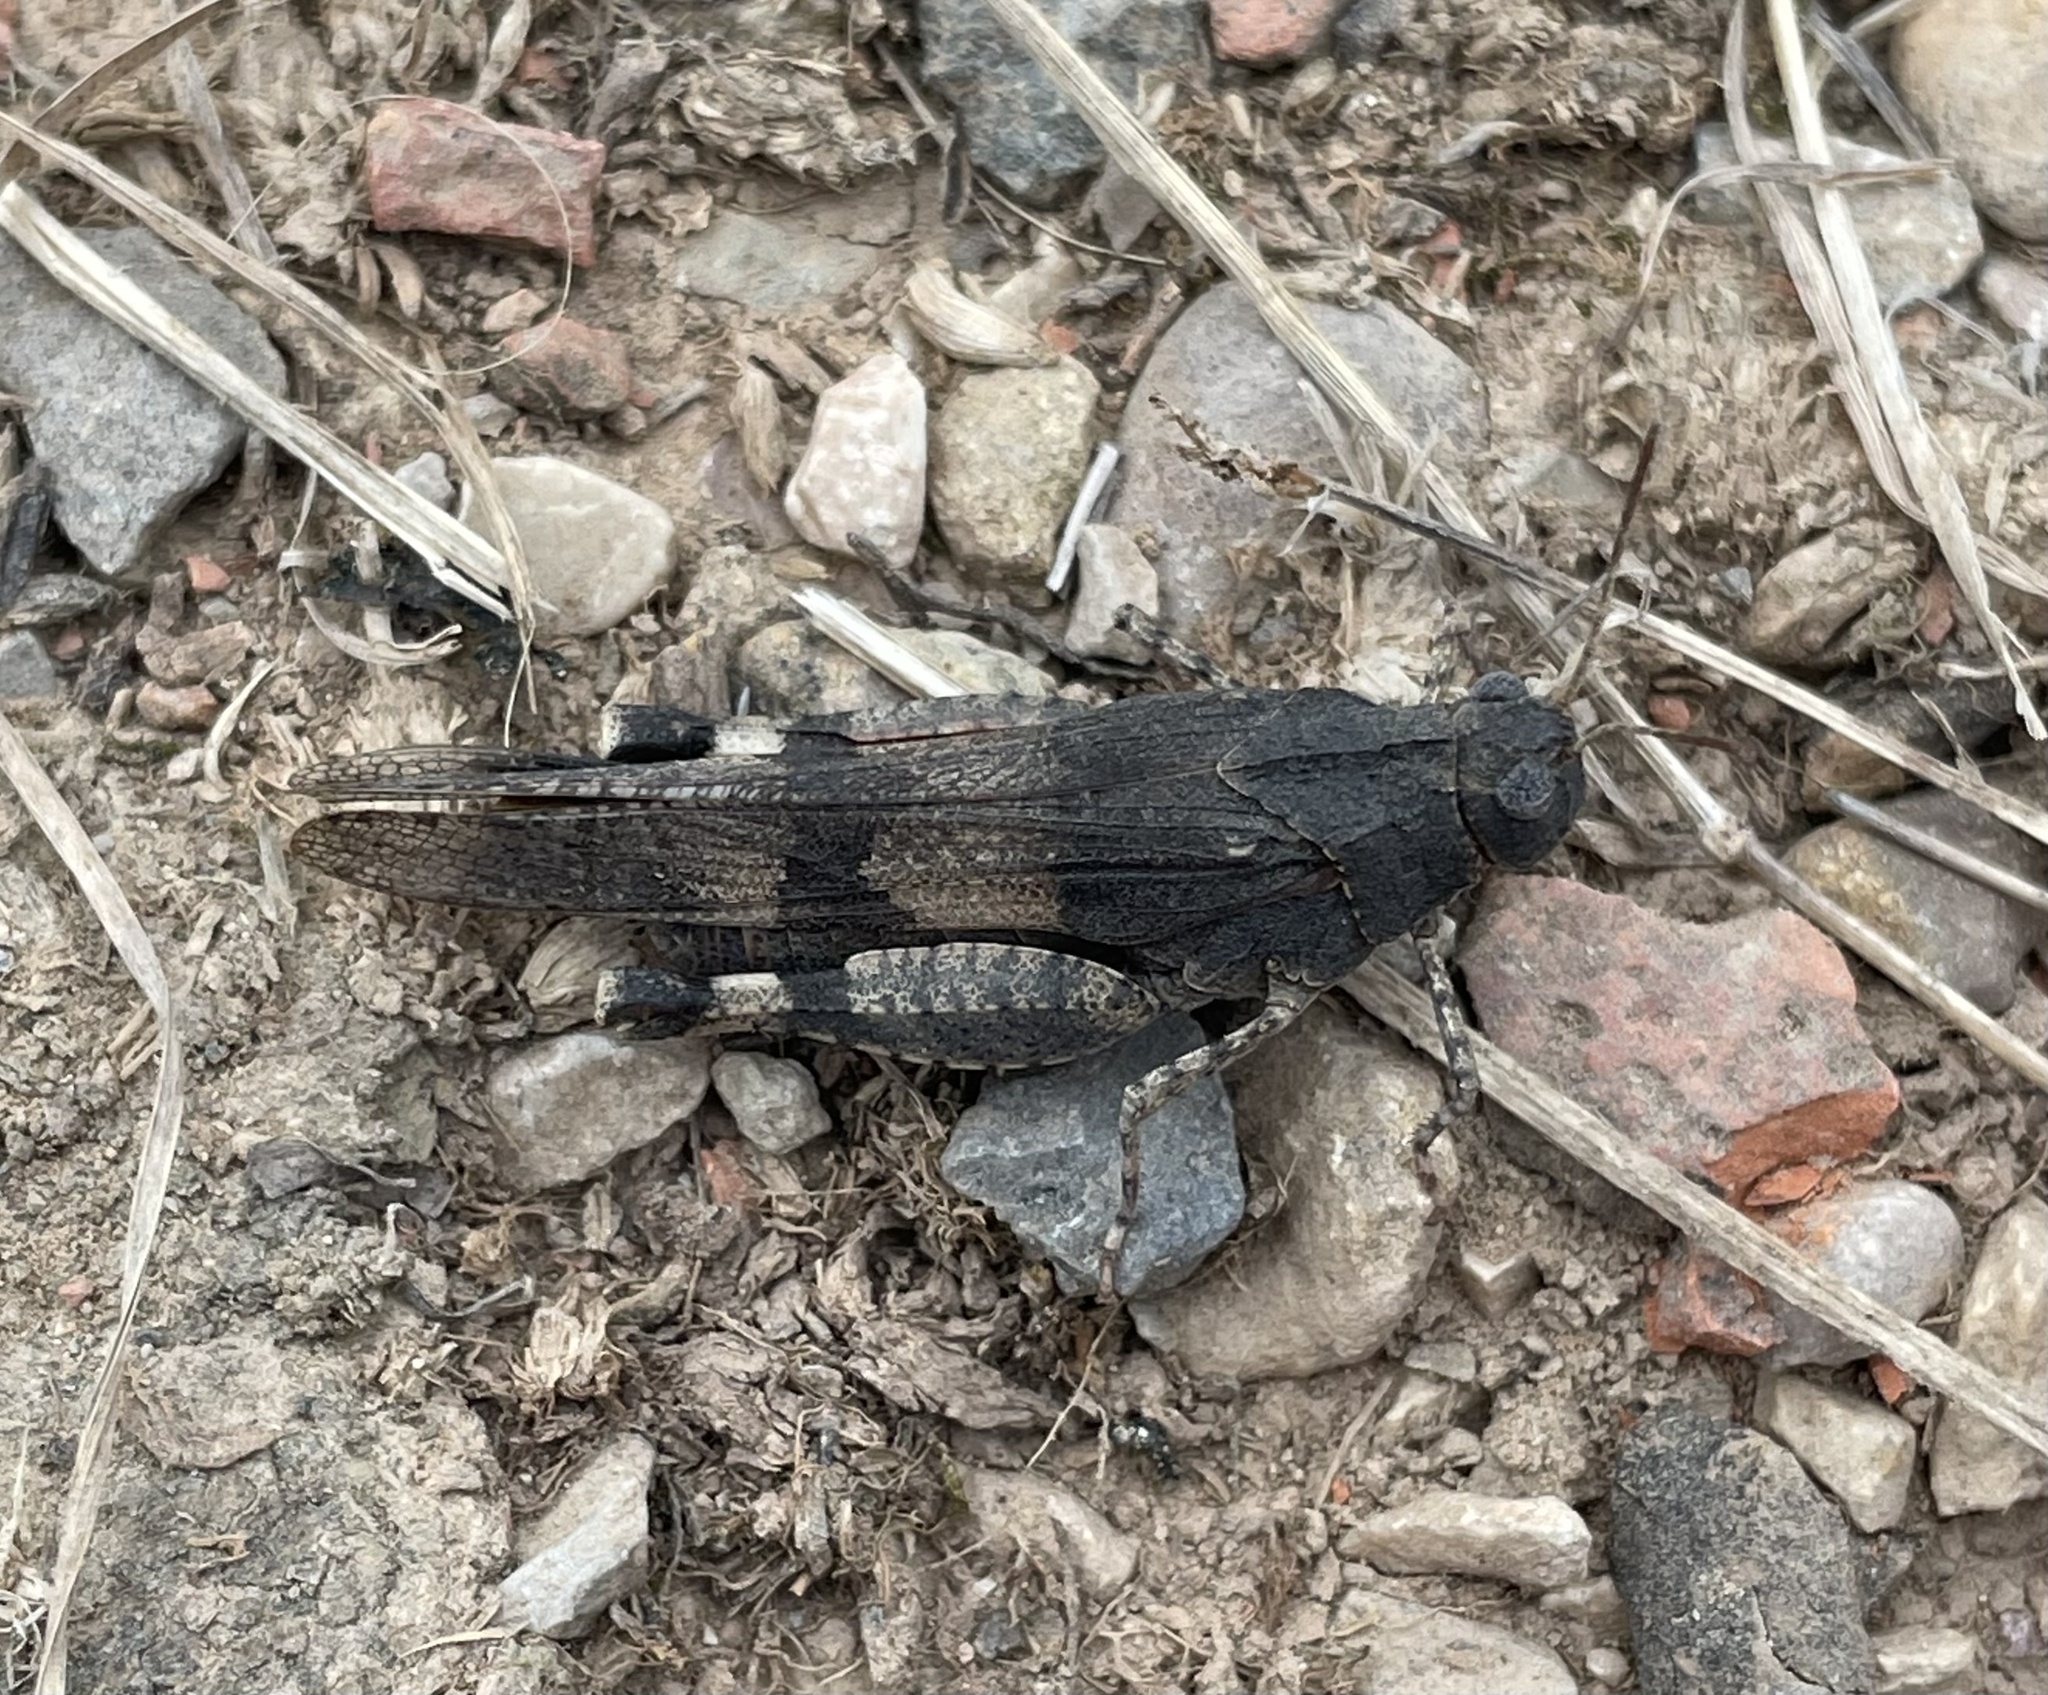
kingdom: Animalia
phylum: Arthropoda
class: Insecta
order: Orthoptera
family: Acrididae
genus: Oedipoda
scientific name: Oedipoda caerulescens
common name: Blue-winged grasshopper
